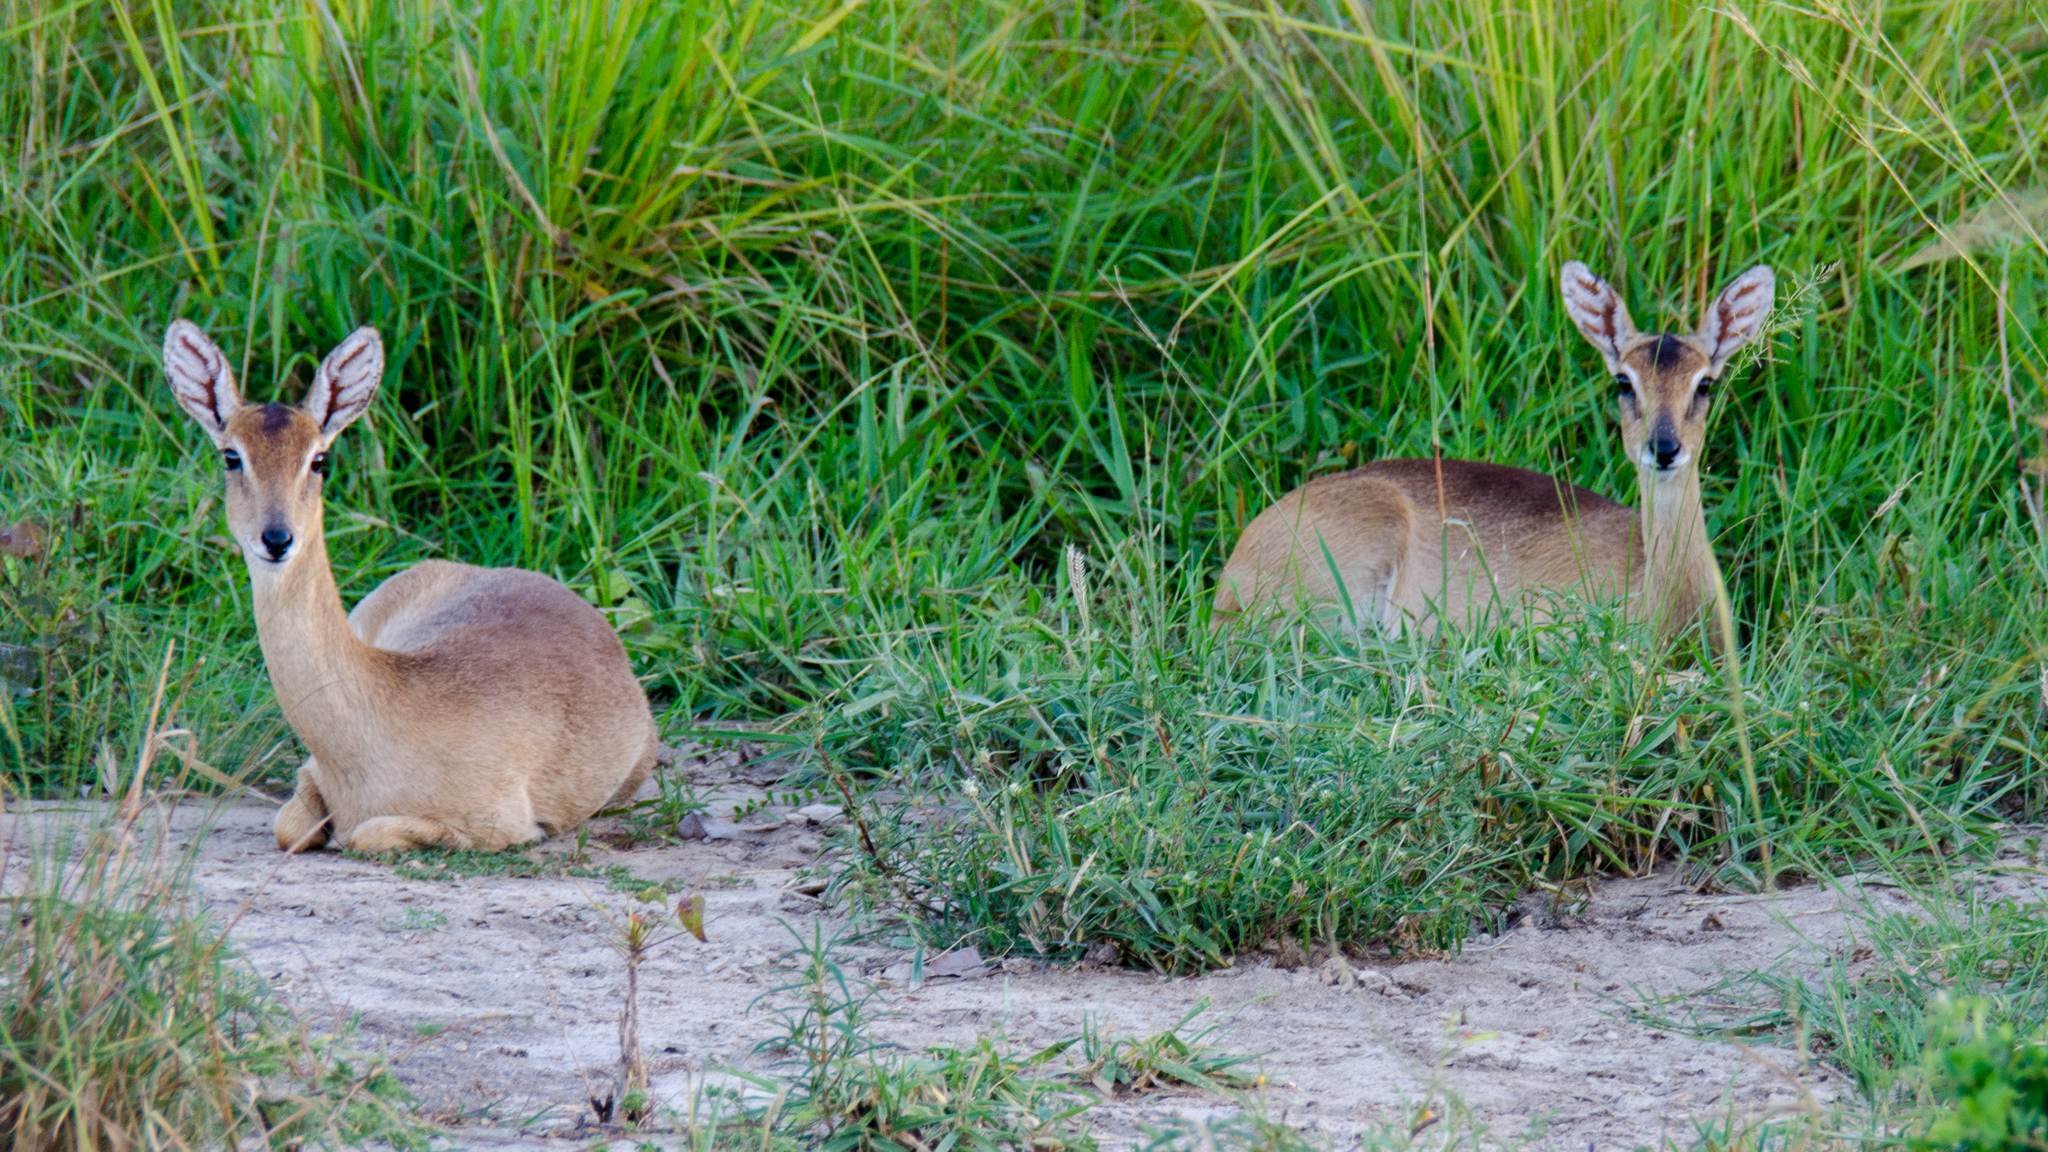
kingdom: Animalia
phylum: Chordata
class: Mammalia
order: Artiodactyla
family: Bovidae
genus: Ourebia
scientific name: Ourebia ourebi
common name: Oribi
